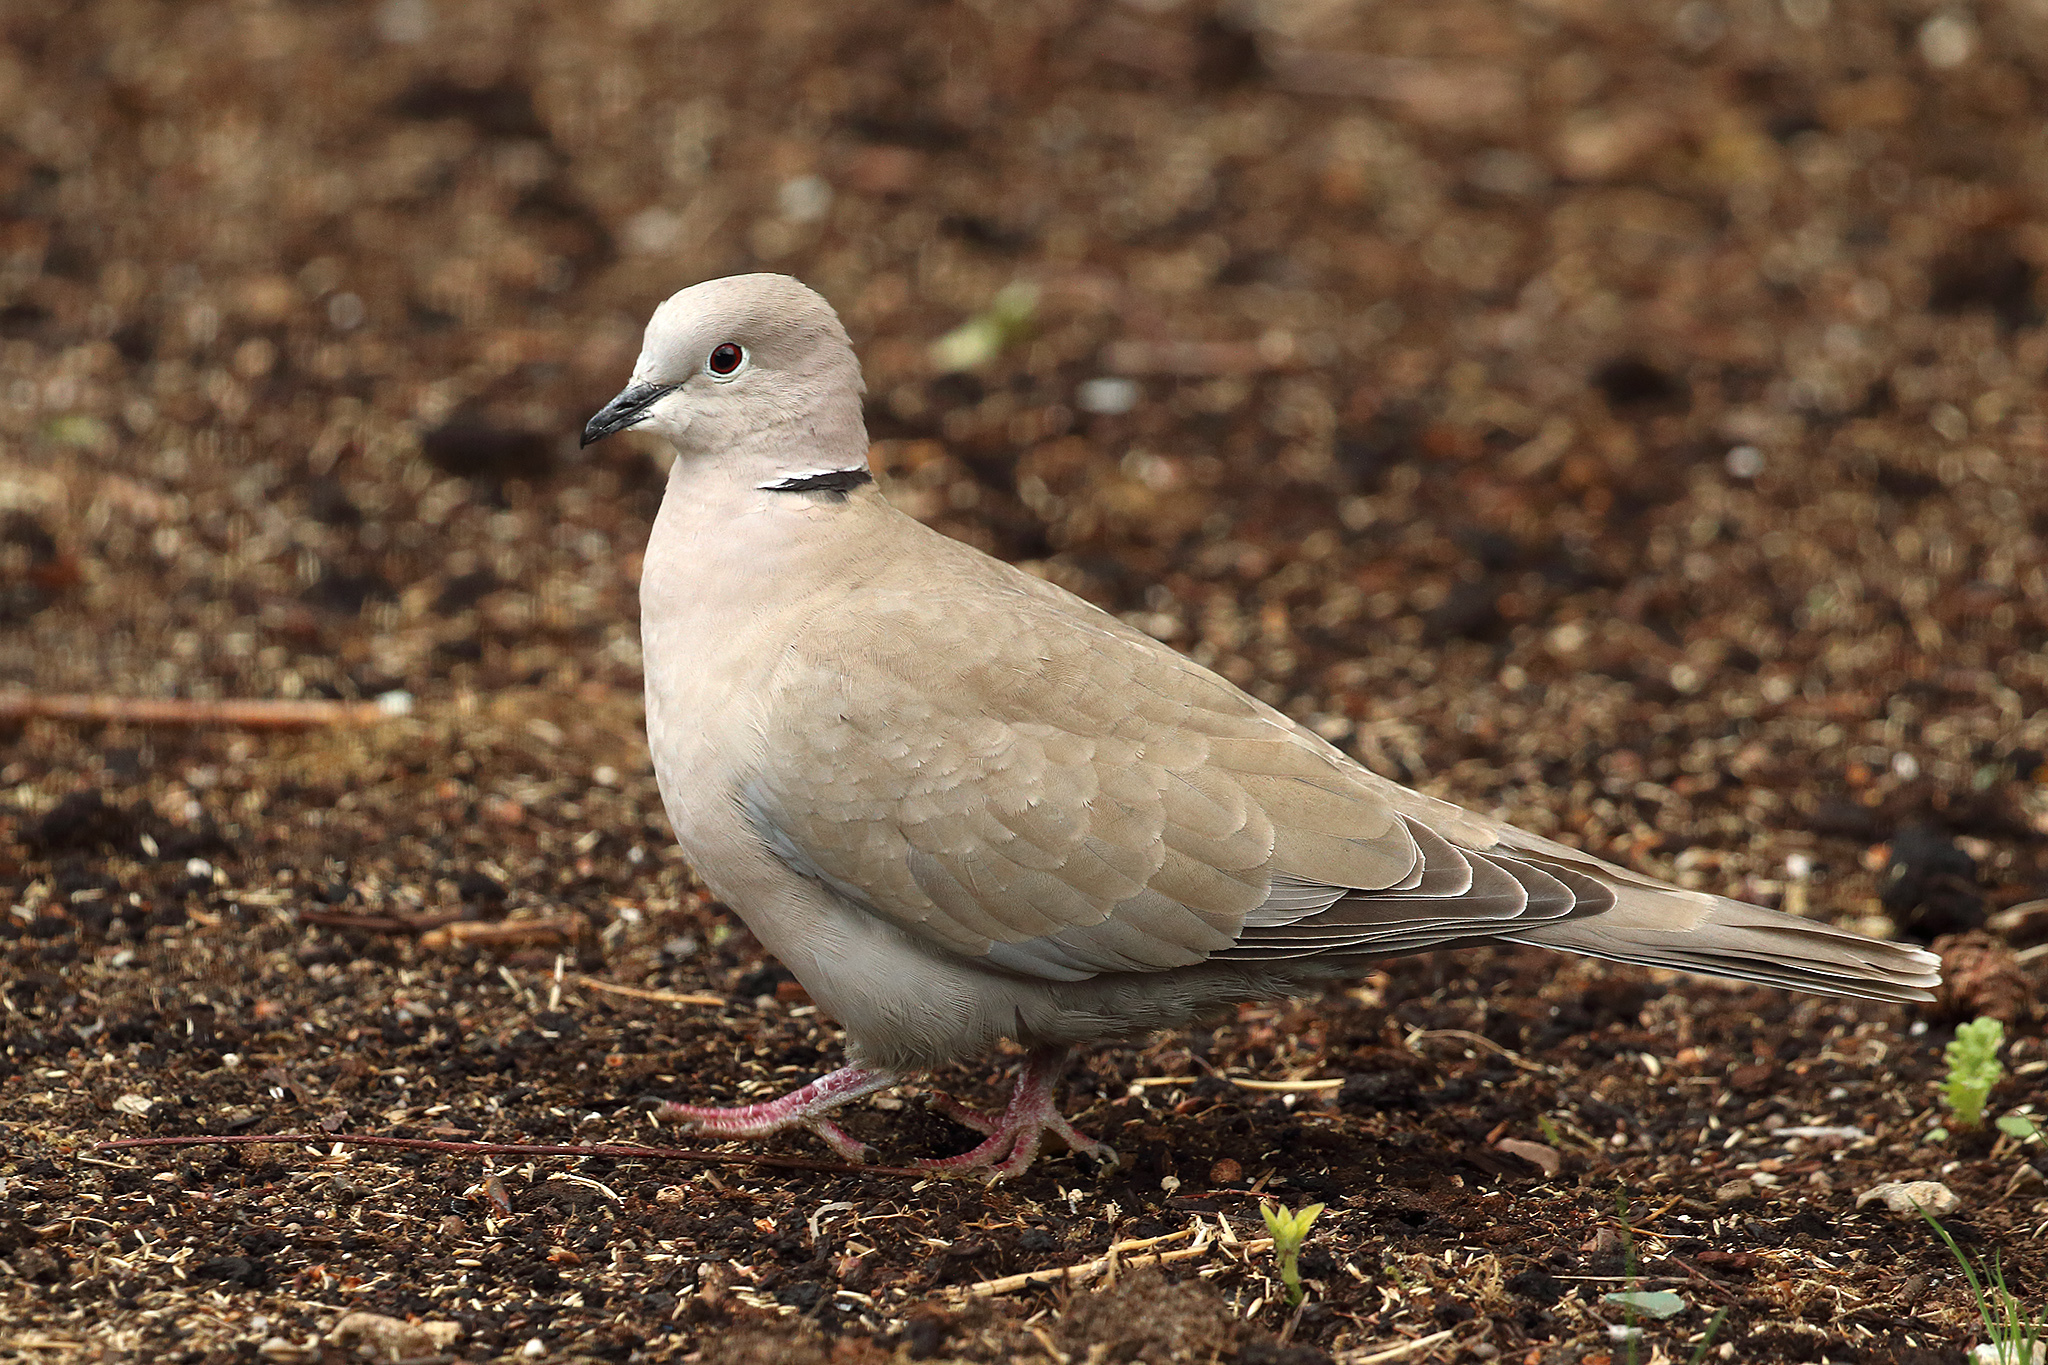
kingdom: Animalia
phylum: Chordata
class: Aves
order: Columbiformes
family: Columbidae
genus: Streptopelia
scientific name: Streptopelia decaocto
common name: Eurasian collared dove
